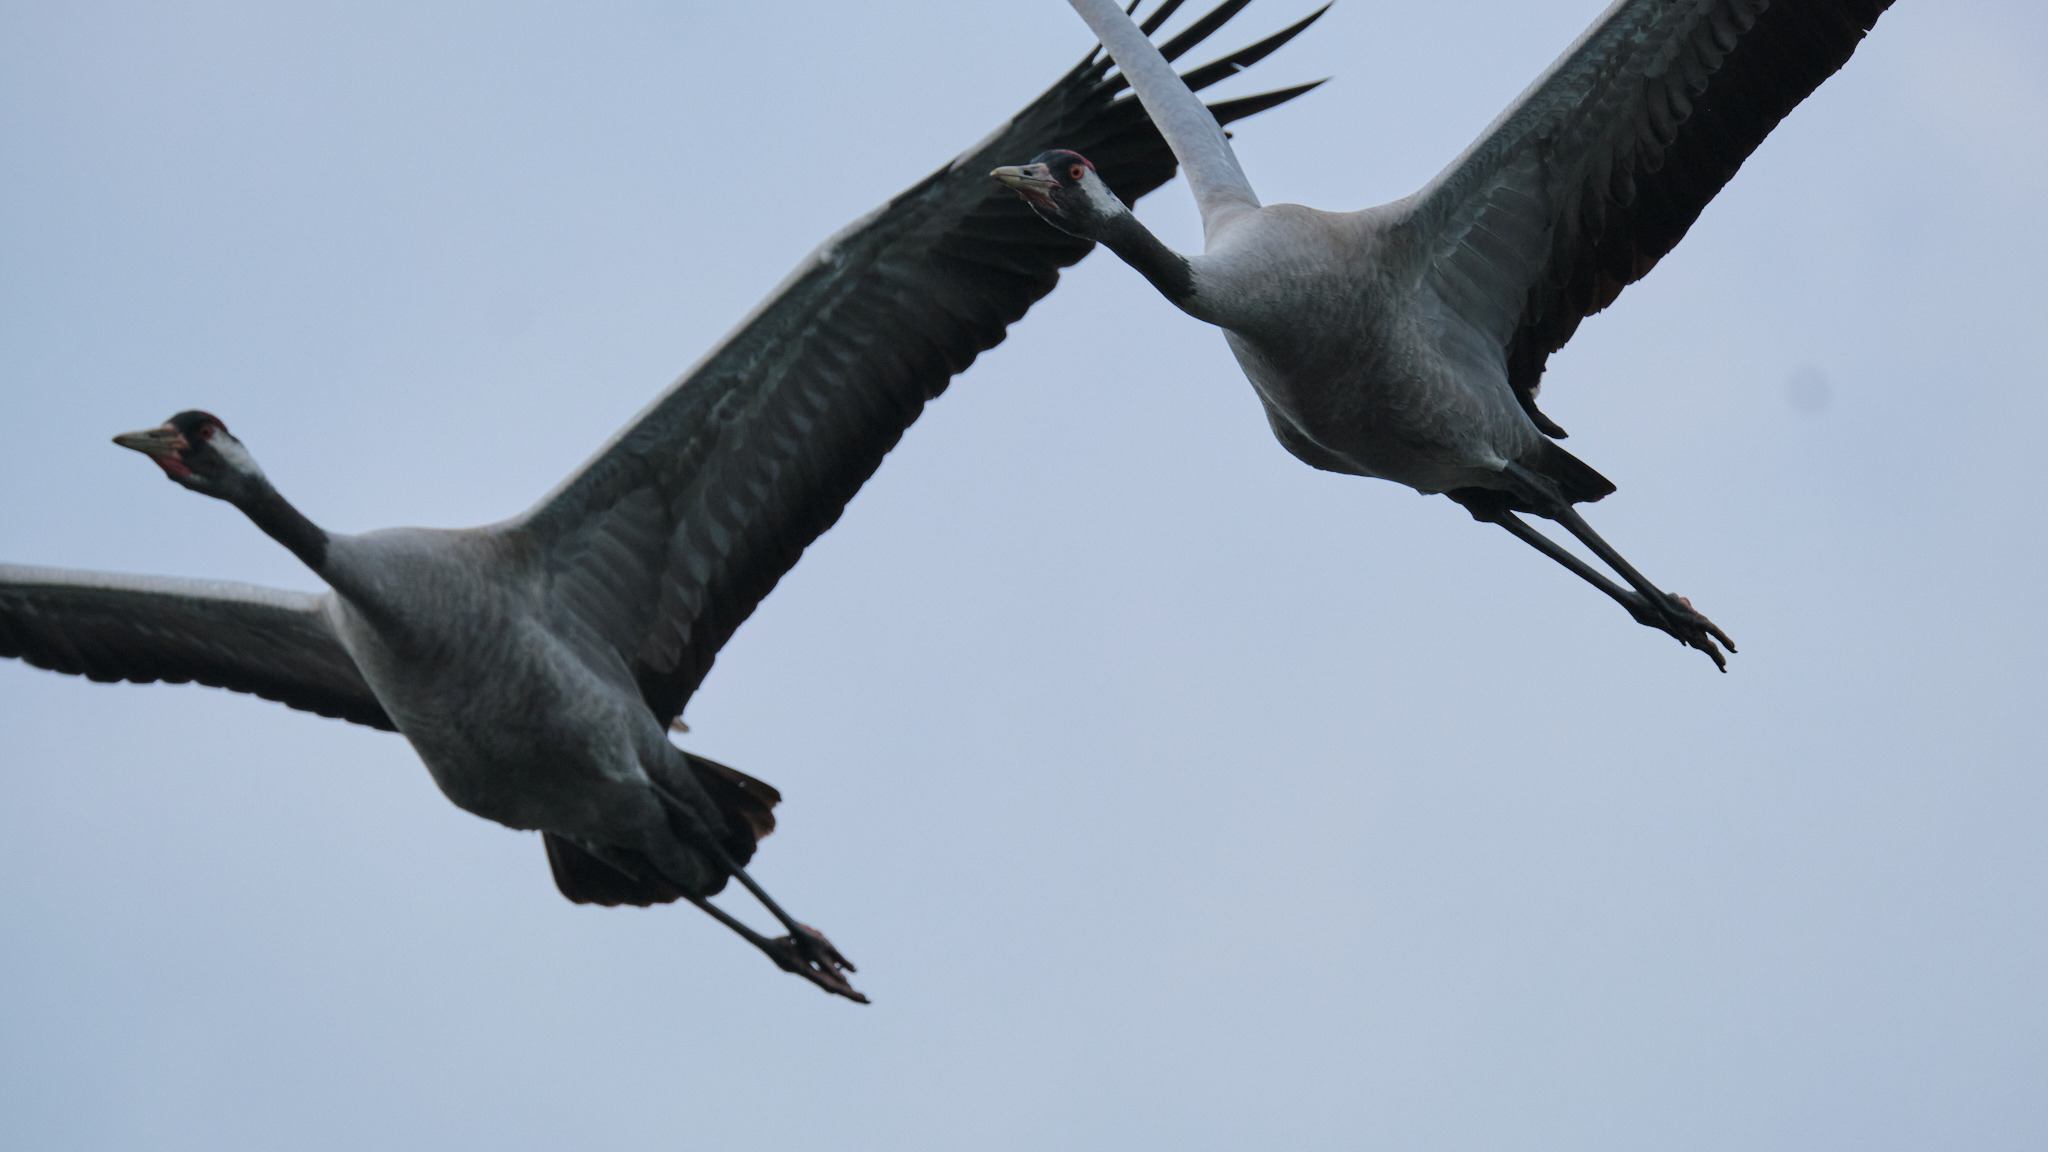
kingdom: Animalia
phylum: Chordata
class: Aves
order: Gruiformes
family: Gruidae
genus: Grus
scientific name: Grus grus
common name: Common crane
